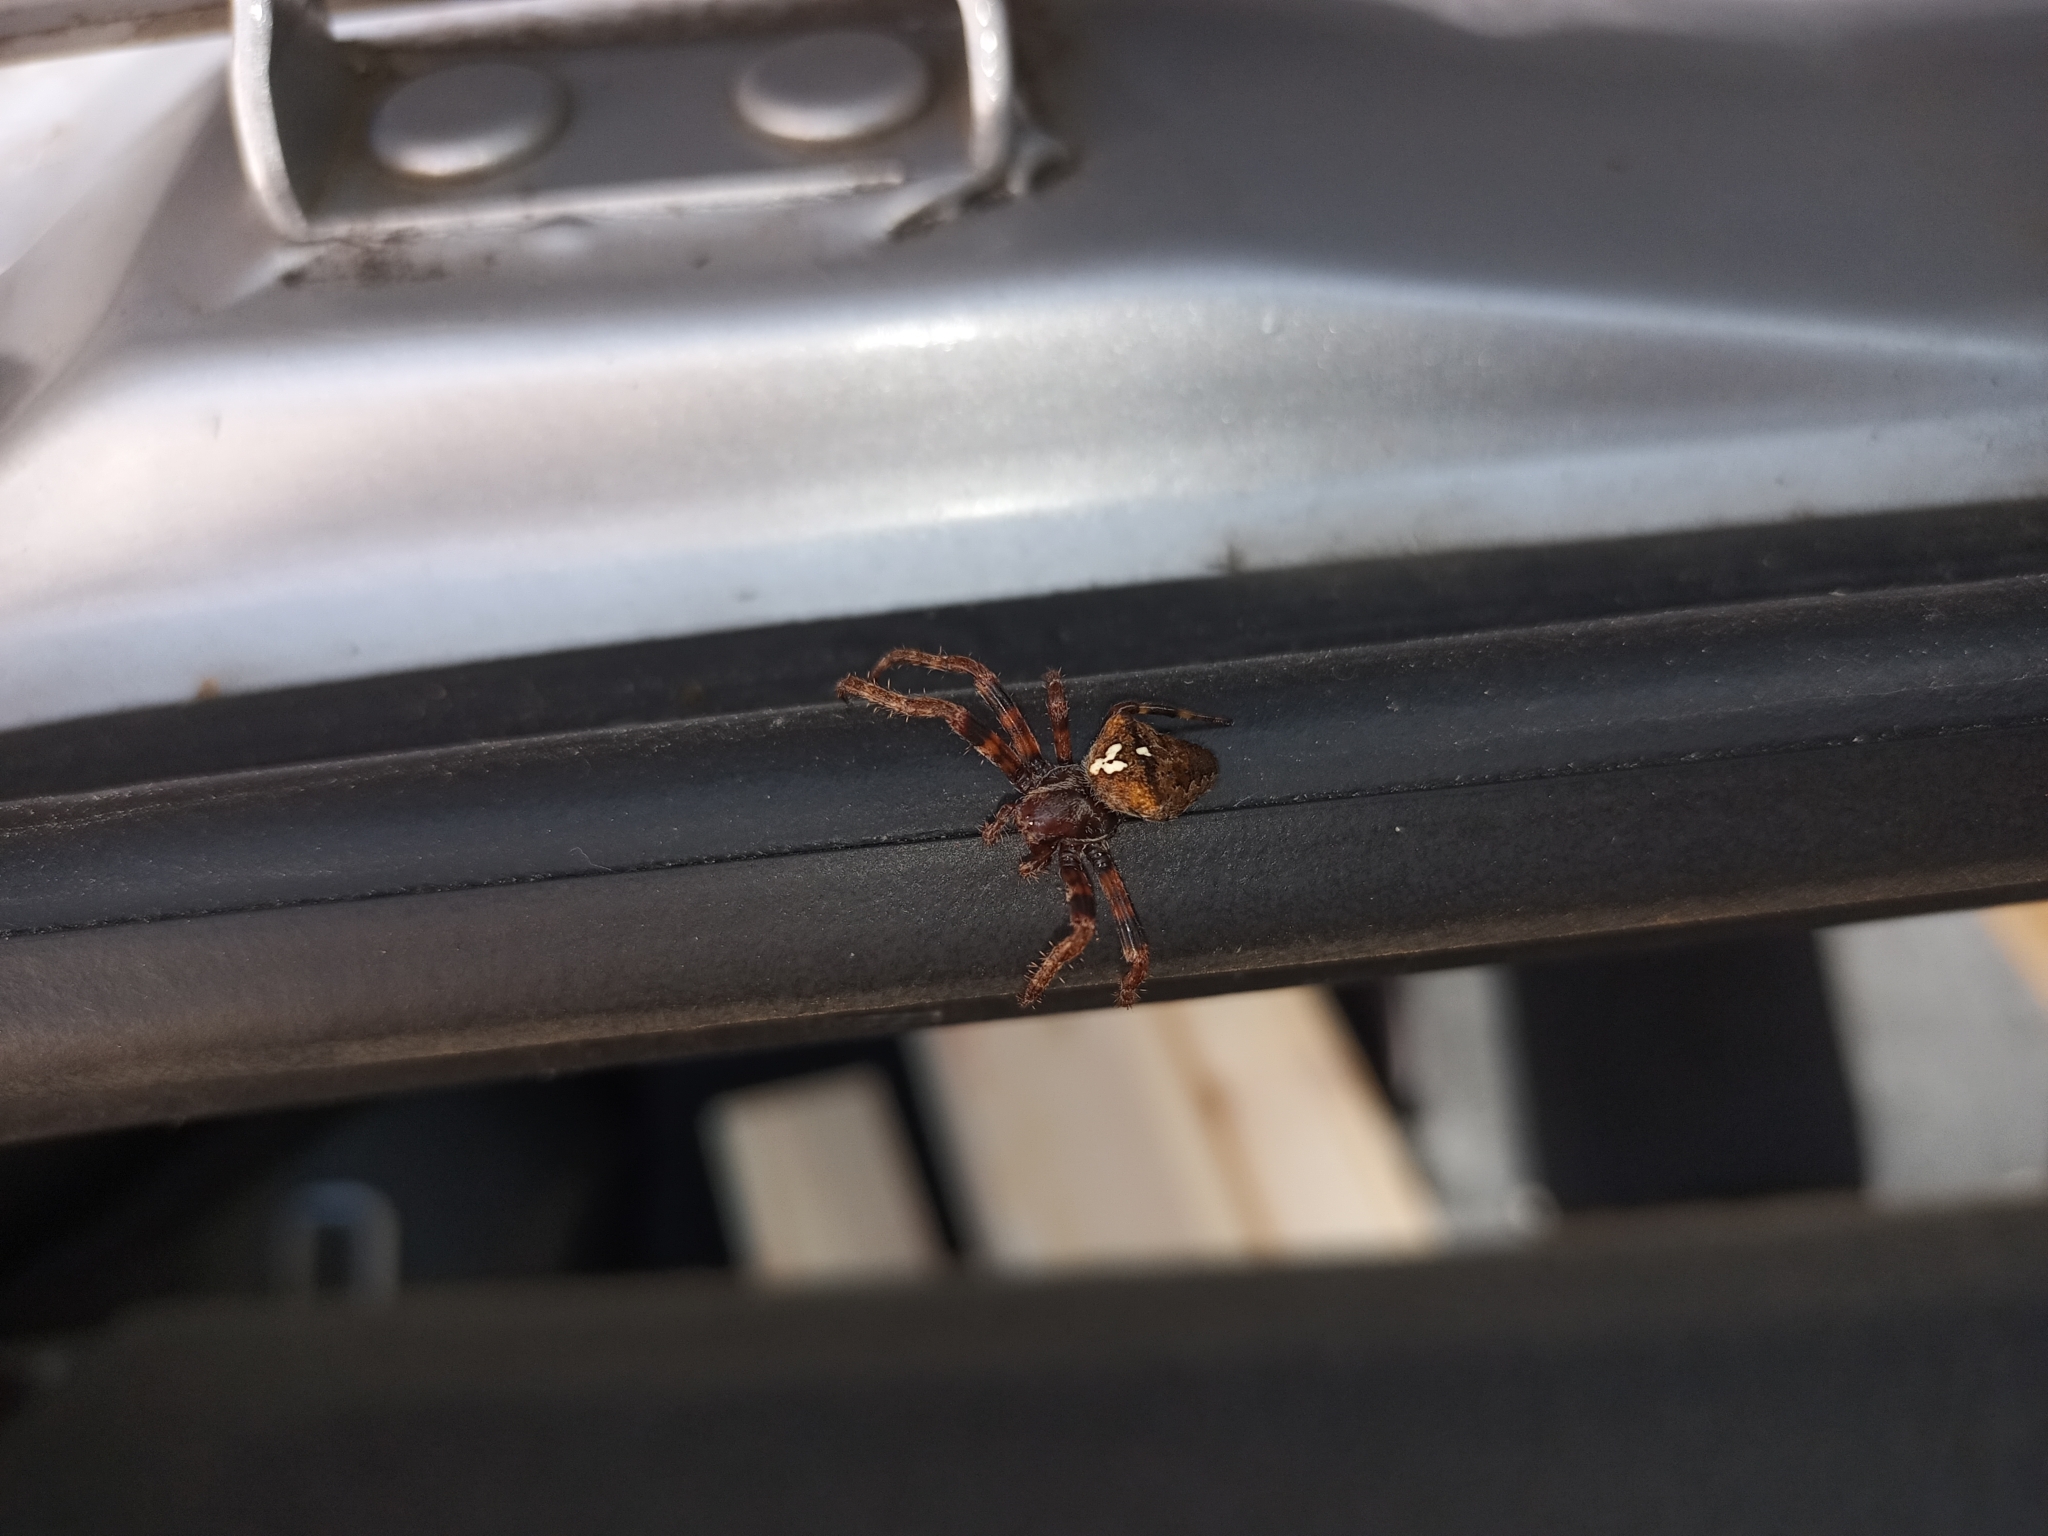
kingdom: Animalia
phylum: Arthropoda
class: Arachnida
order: Araneae
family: Araneidae
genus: Araneus
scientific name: Araneus angulatus
